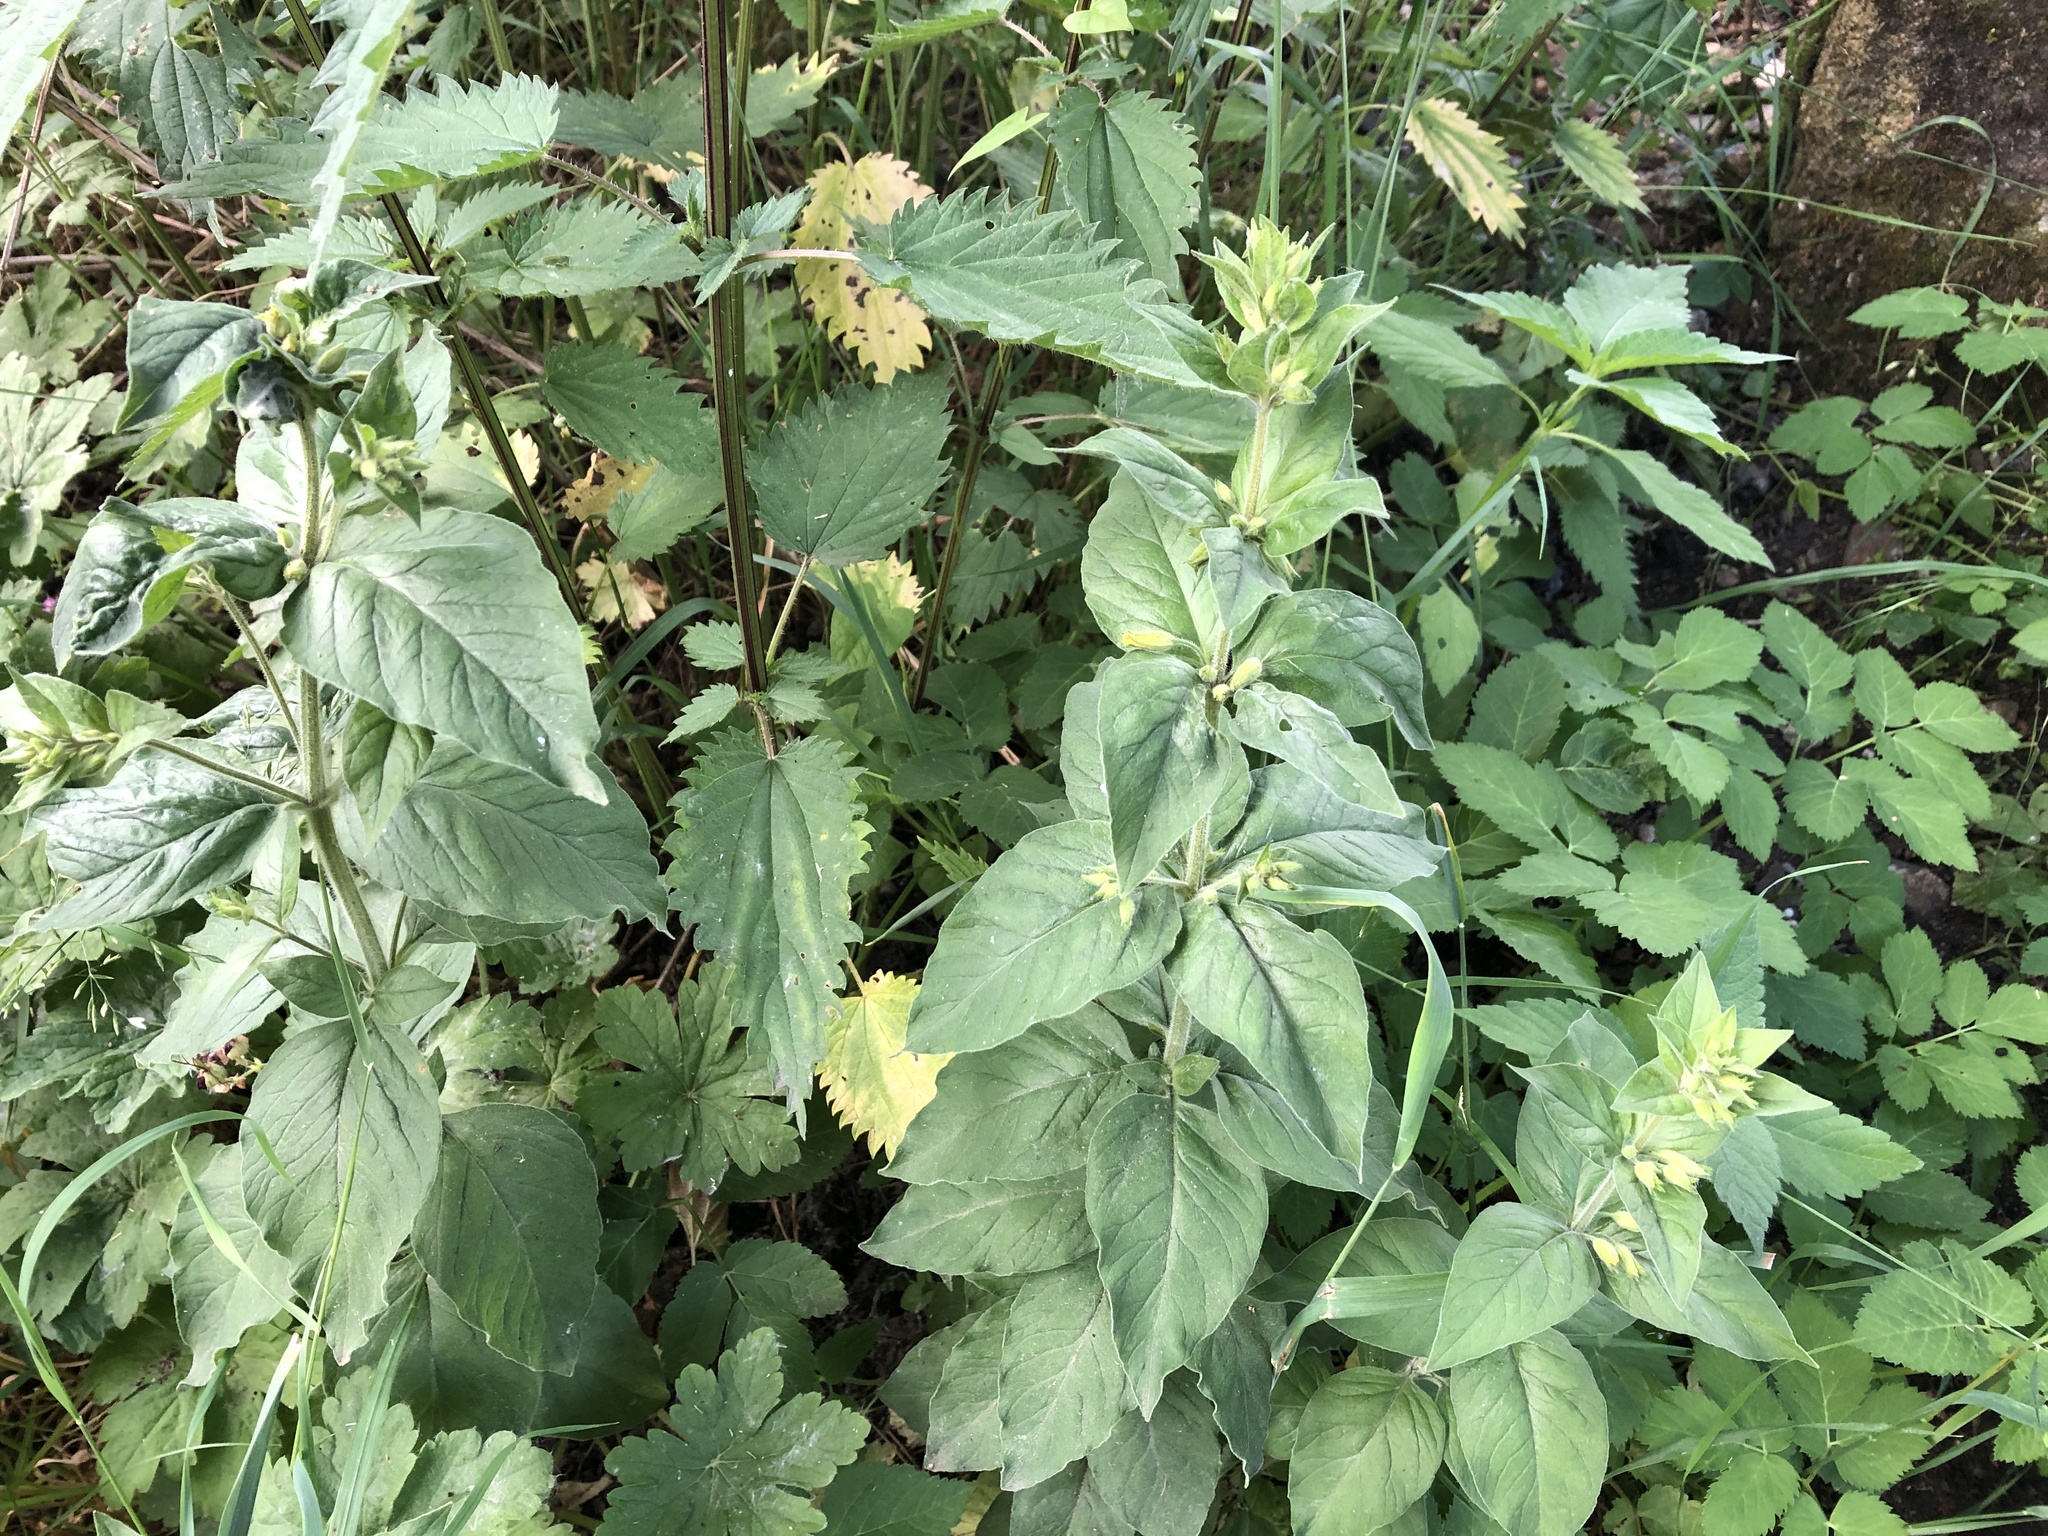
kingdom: Plantae
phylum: Tracheophyta
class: Magnoliopsida
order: Ericales
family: Primulaceae
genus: Lysimachia
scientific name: Lysimachia punctata
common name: Dotted loosestrife
